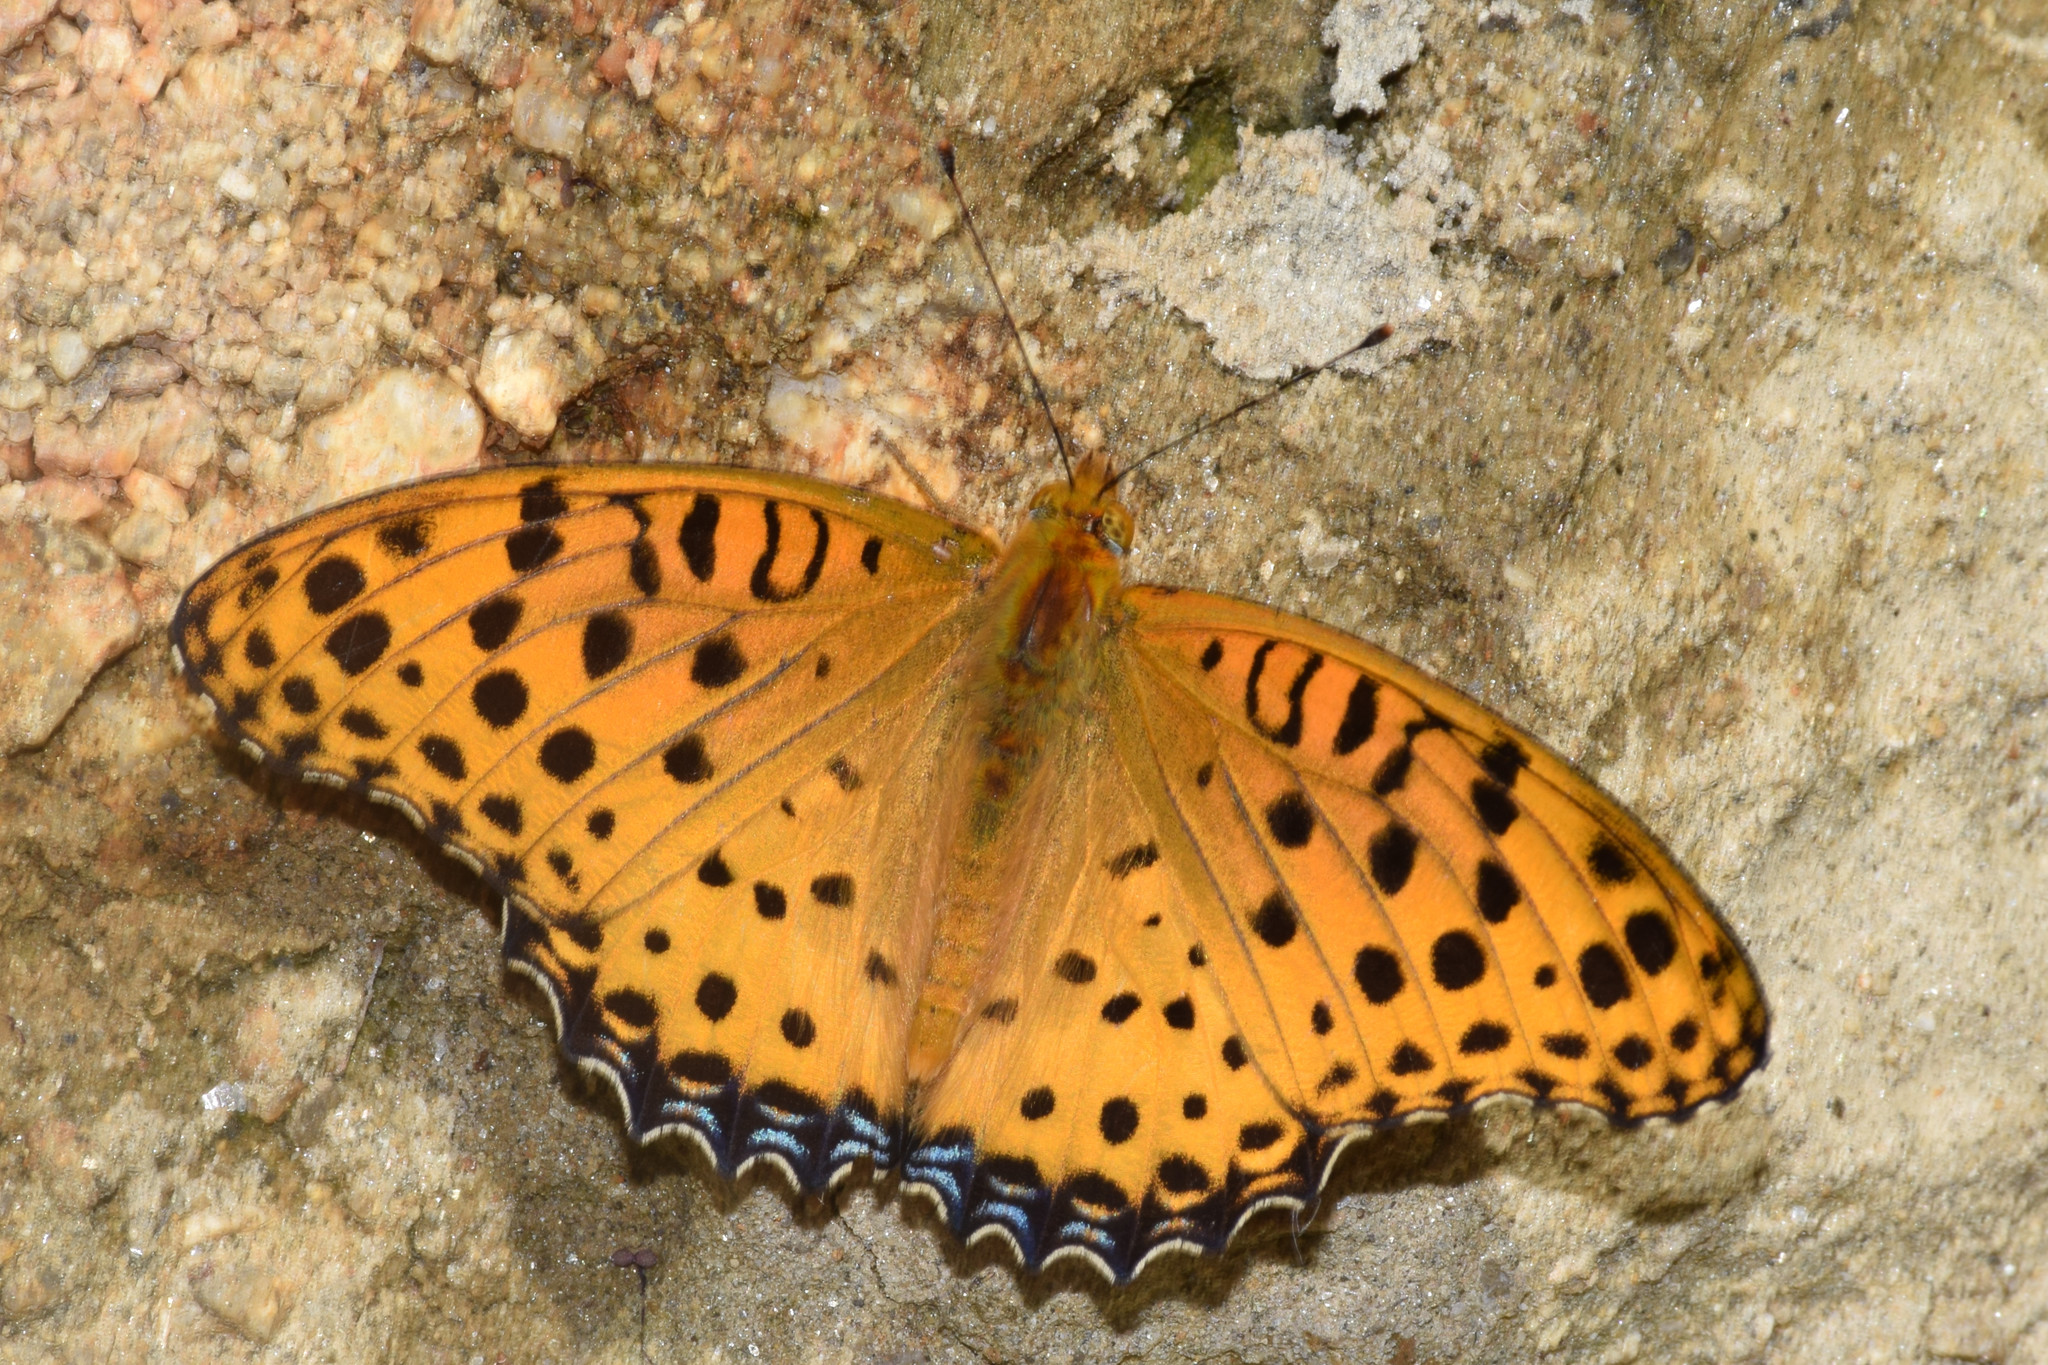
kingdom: Animalia
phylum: Arthropoda
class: Insecta
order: Lepidoptera
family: Nymphalidae
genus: Argynnis
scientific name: Argynnis hyperbius
